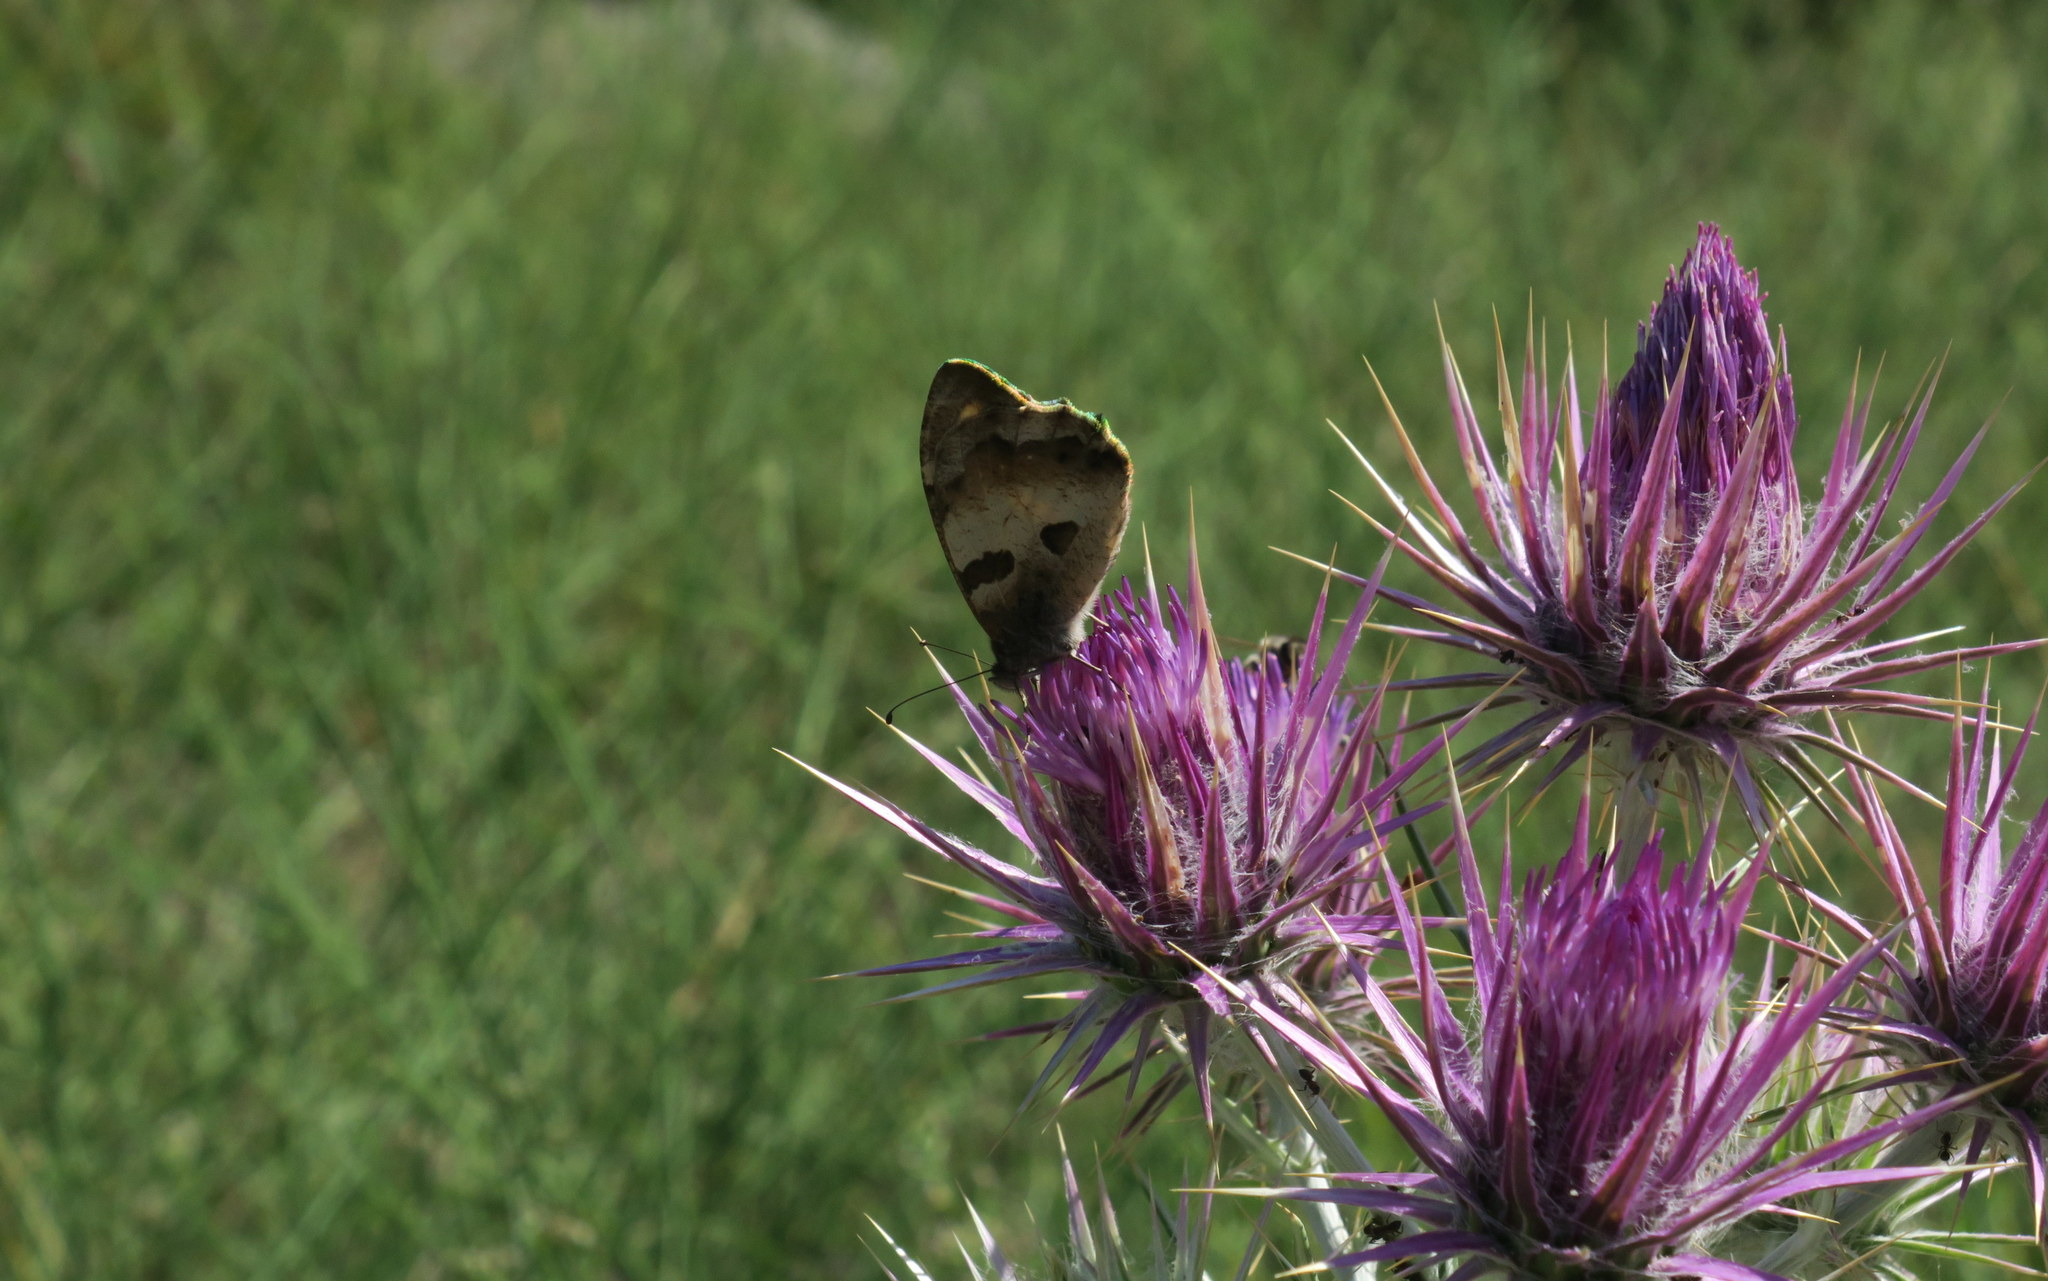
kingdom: Animalia
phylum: Arthropoda
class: Insecta
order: Lepidoptera
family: Nymphalidae
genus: Satyrus
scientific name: Satyrus briseis
